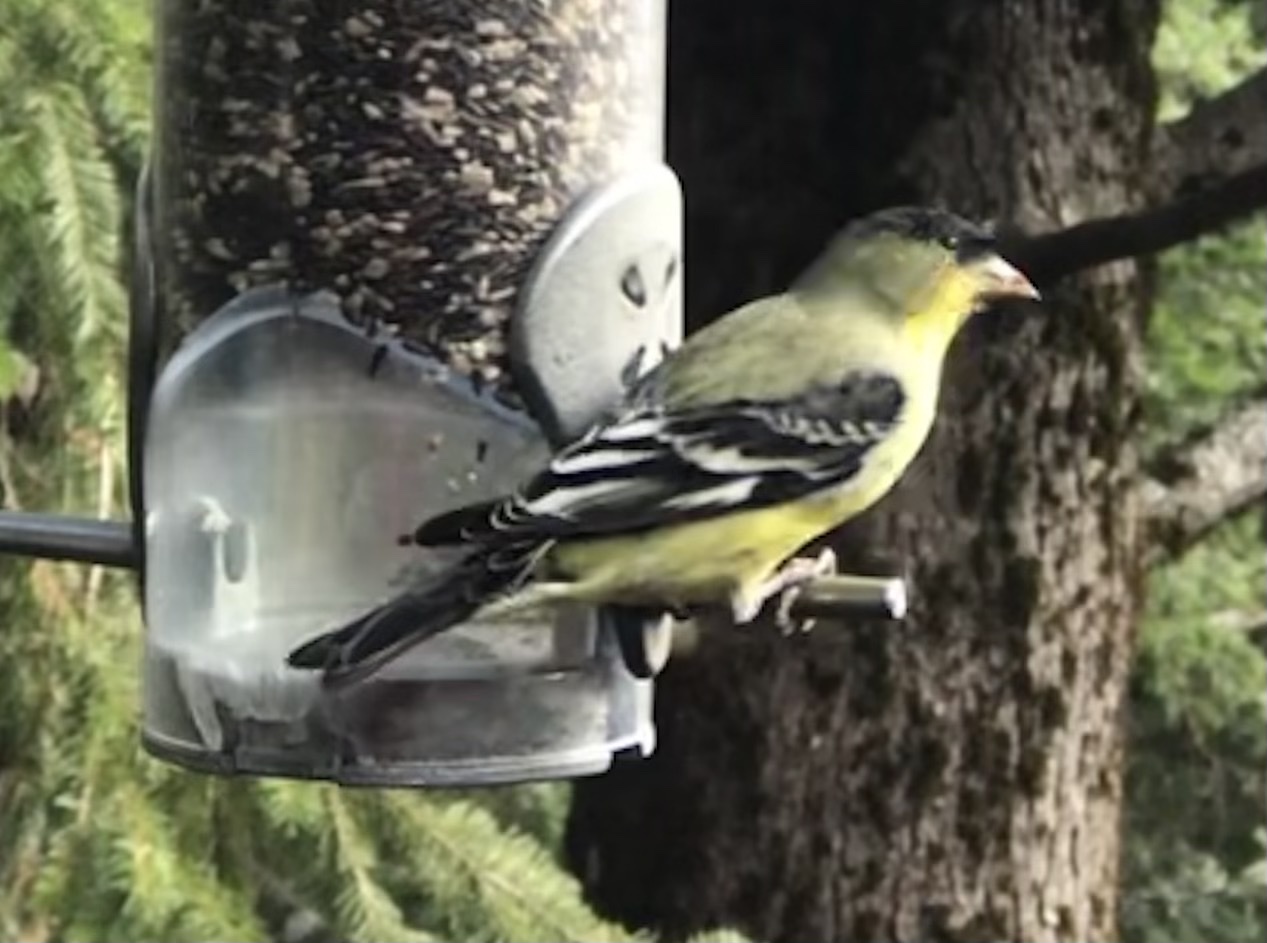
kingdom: Animalia
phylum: Chordata
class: Aves
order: Passeriformes
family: Fringillidae
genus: Spinus
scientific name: Spinus psaltria
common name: Lesser goldfinch
